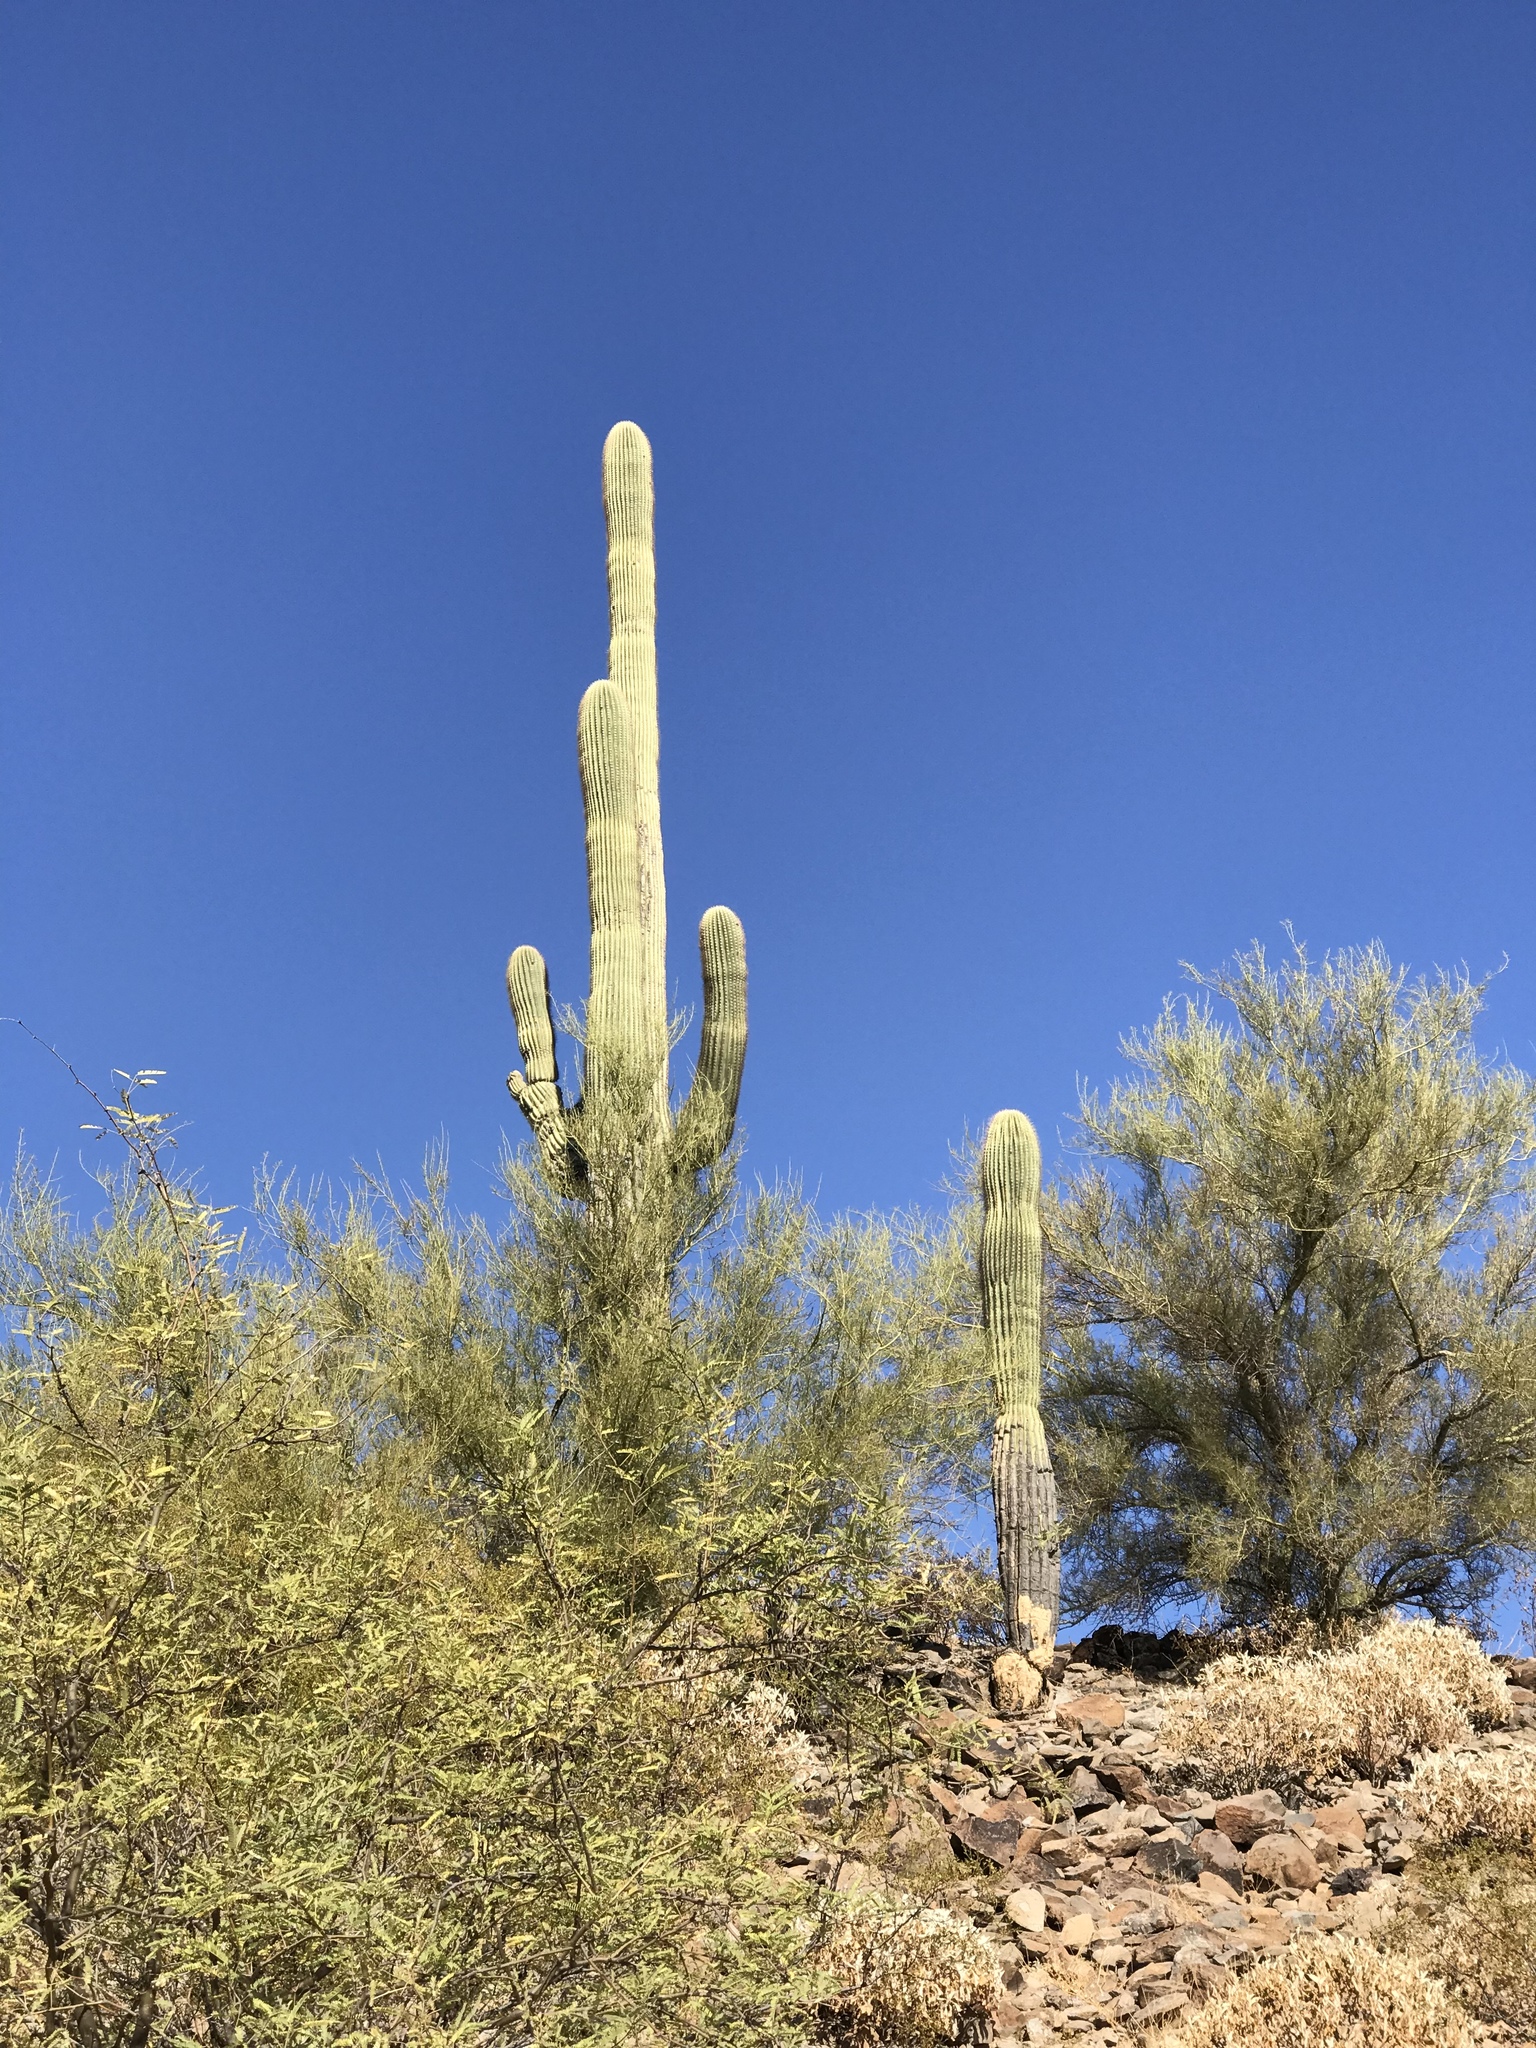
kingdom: Plantae
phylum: Tracheophyta
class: Magnoliopsida
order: Caryophyllales
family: Cactaceae
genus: Carnegiea
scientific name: Carnegiea gigantea
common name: Saguaro
